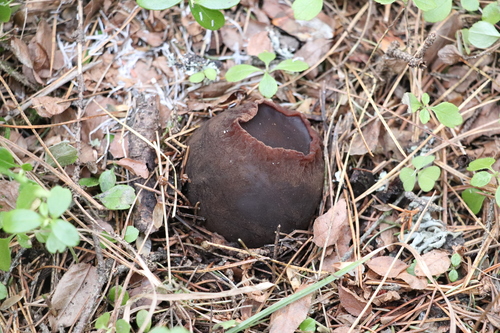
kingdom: Fungi
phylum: Ascomycota
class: Pezizomycetes
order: Pezizales
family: Sarcosomataceae
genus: Sarcosoma
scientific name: Sarcosoma globosum
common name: Charred-pancake cup
